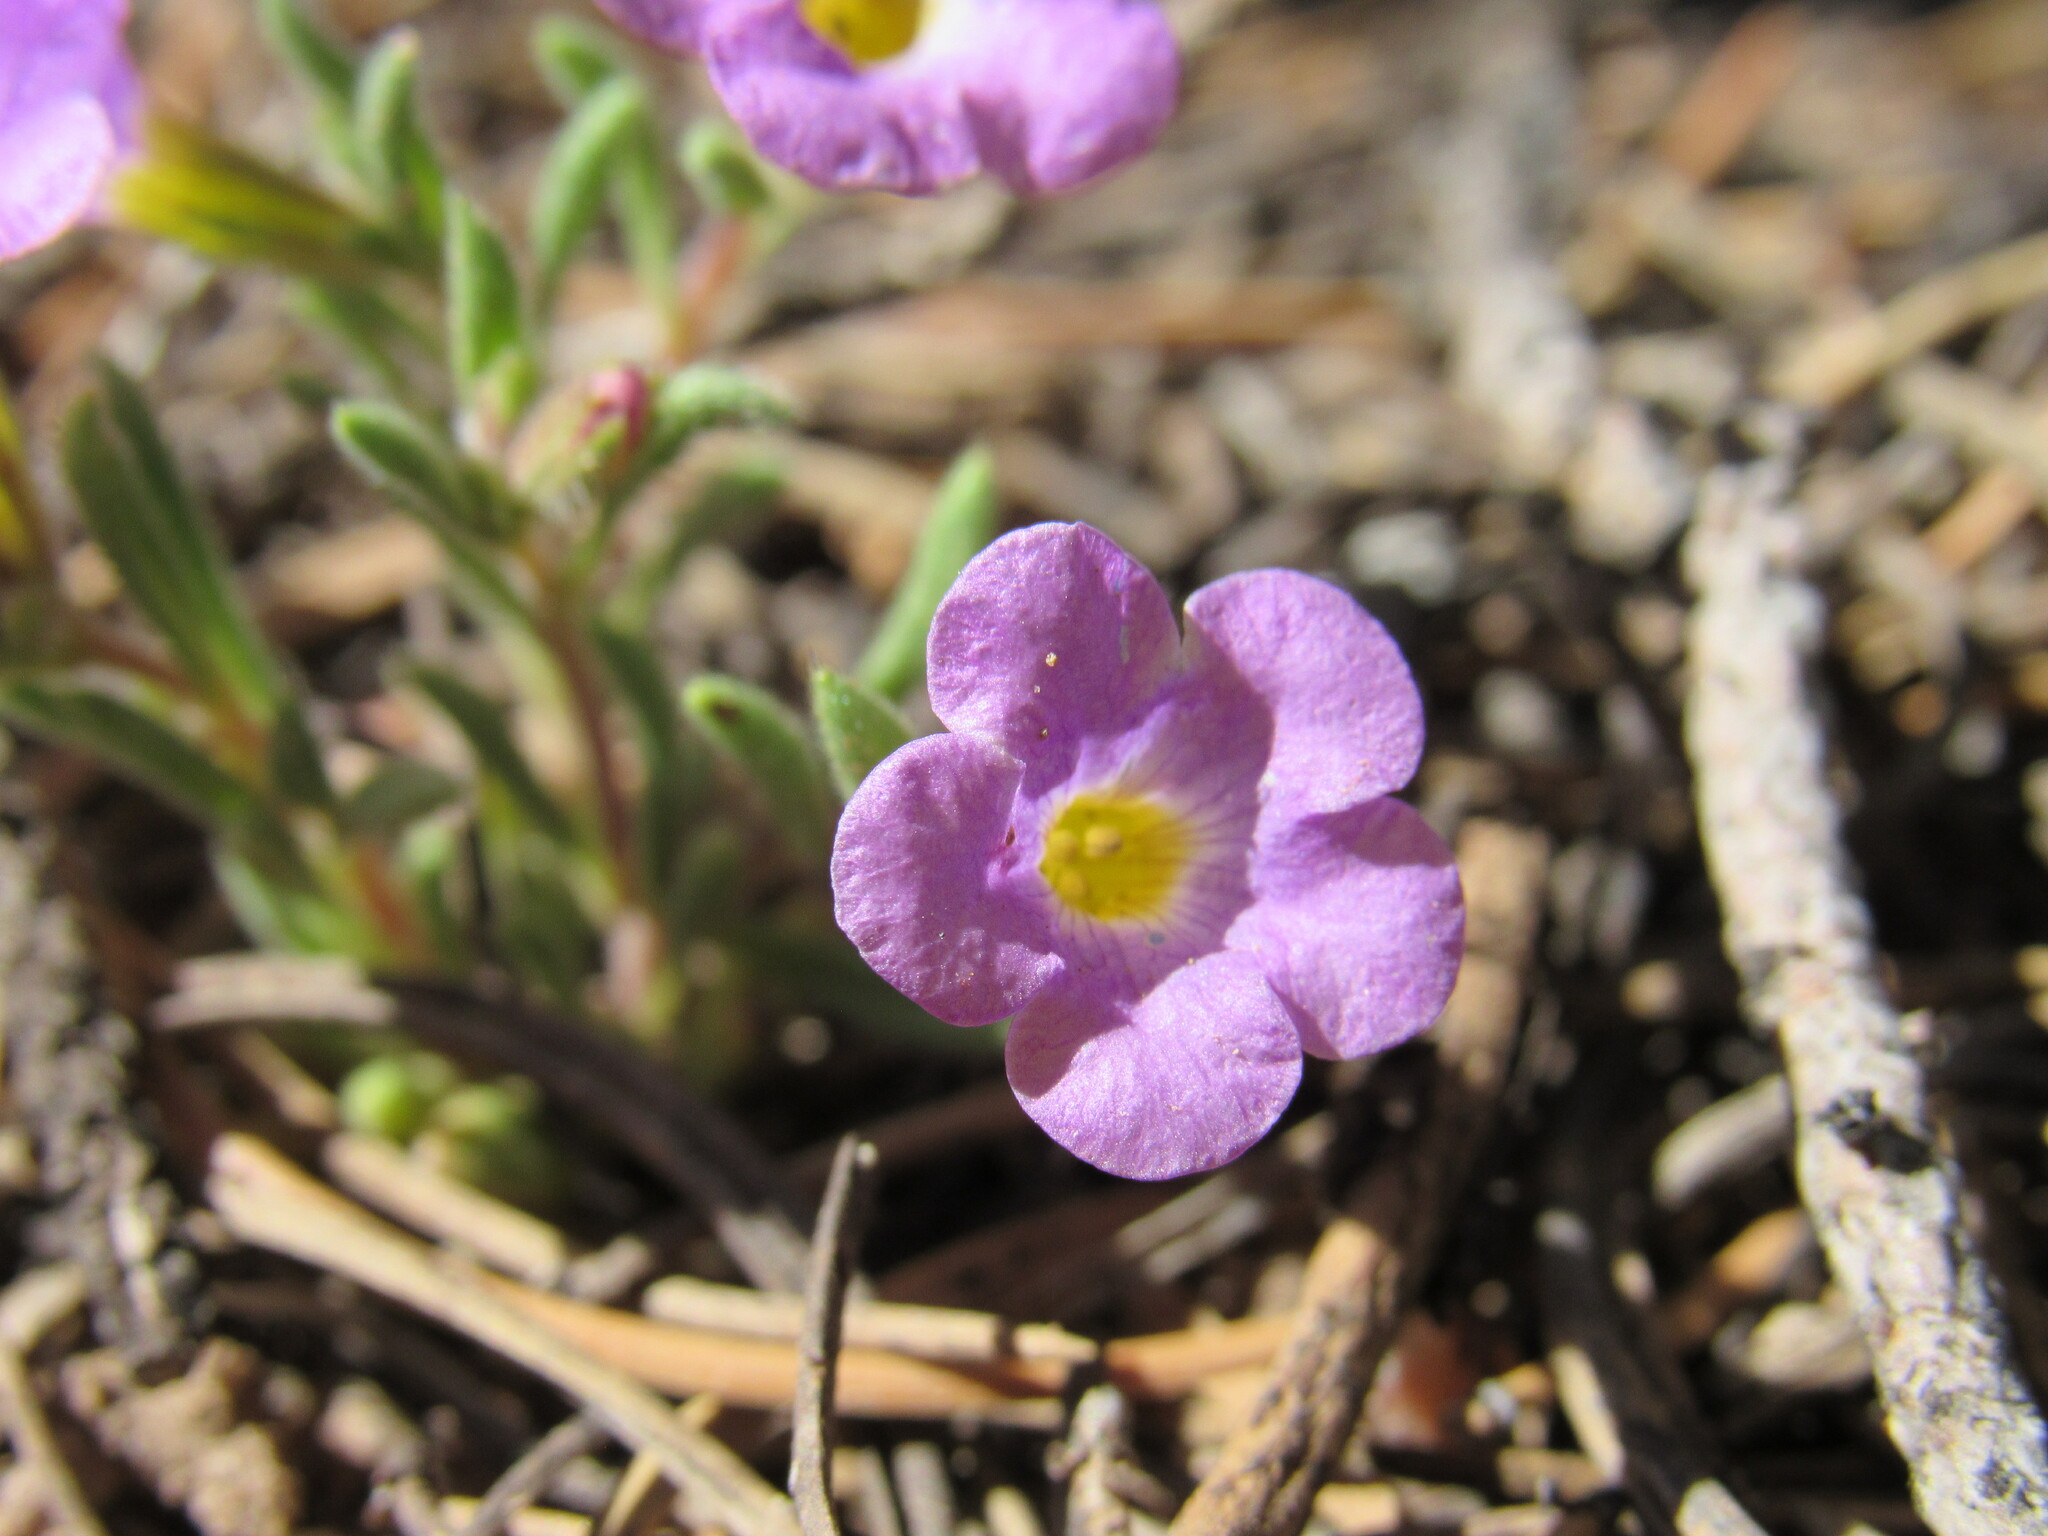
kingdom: Plantae
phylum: Tracheophyta
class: Magnoliopsida
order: Boraginales
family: Namaceae
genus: Nama
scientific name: Nama hispida
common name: Bristly nama
